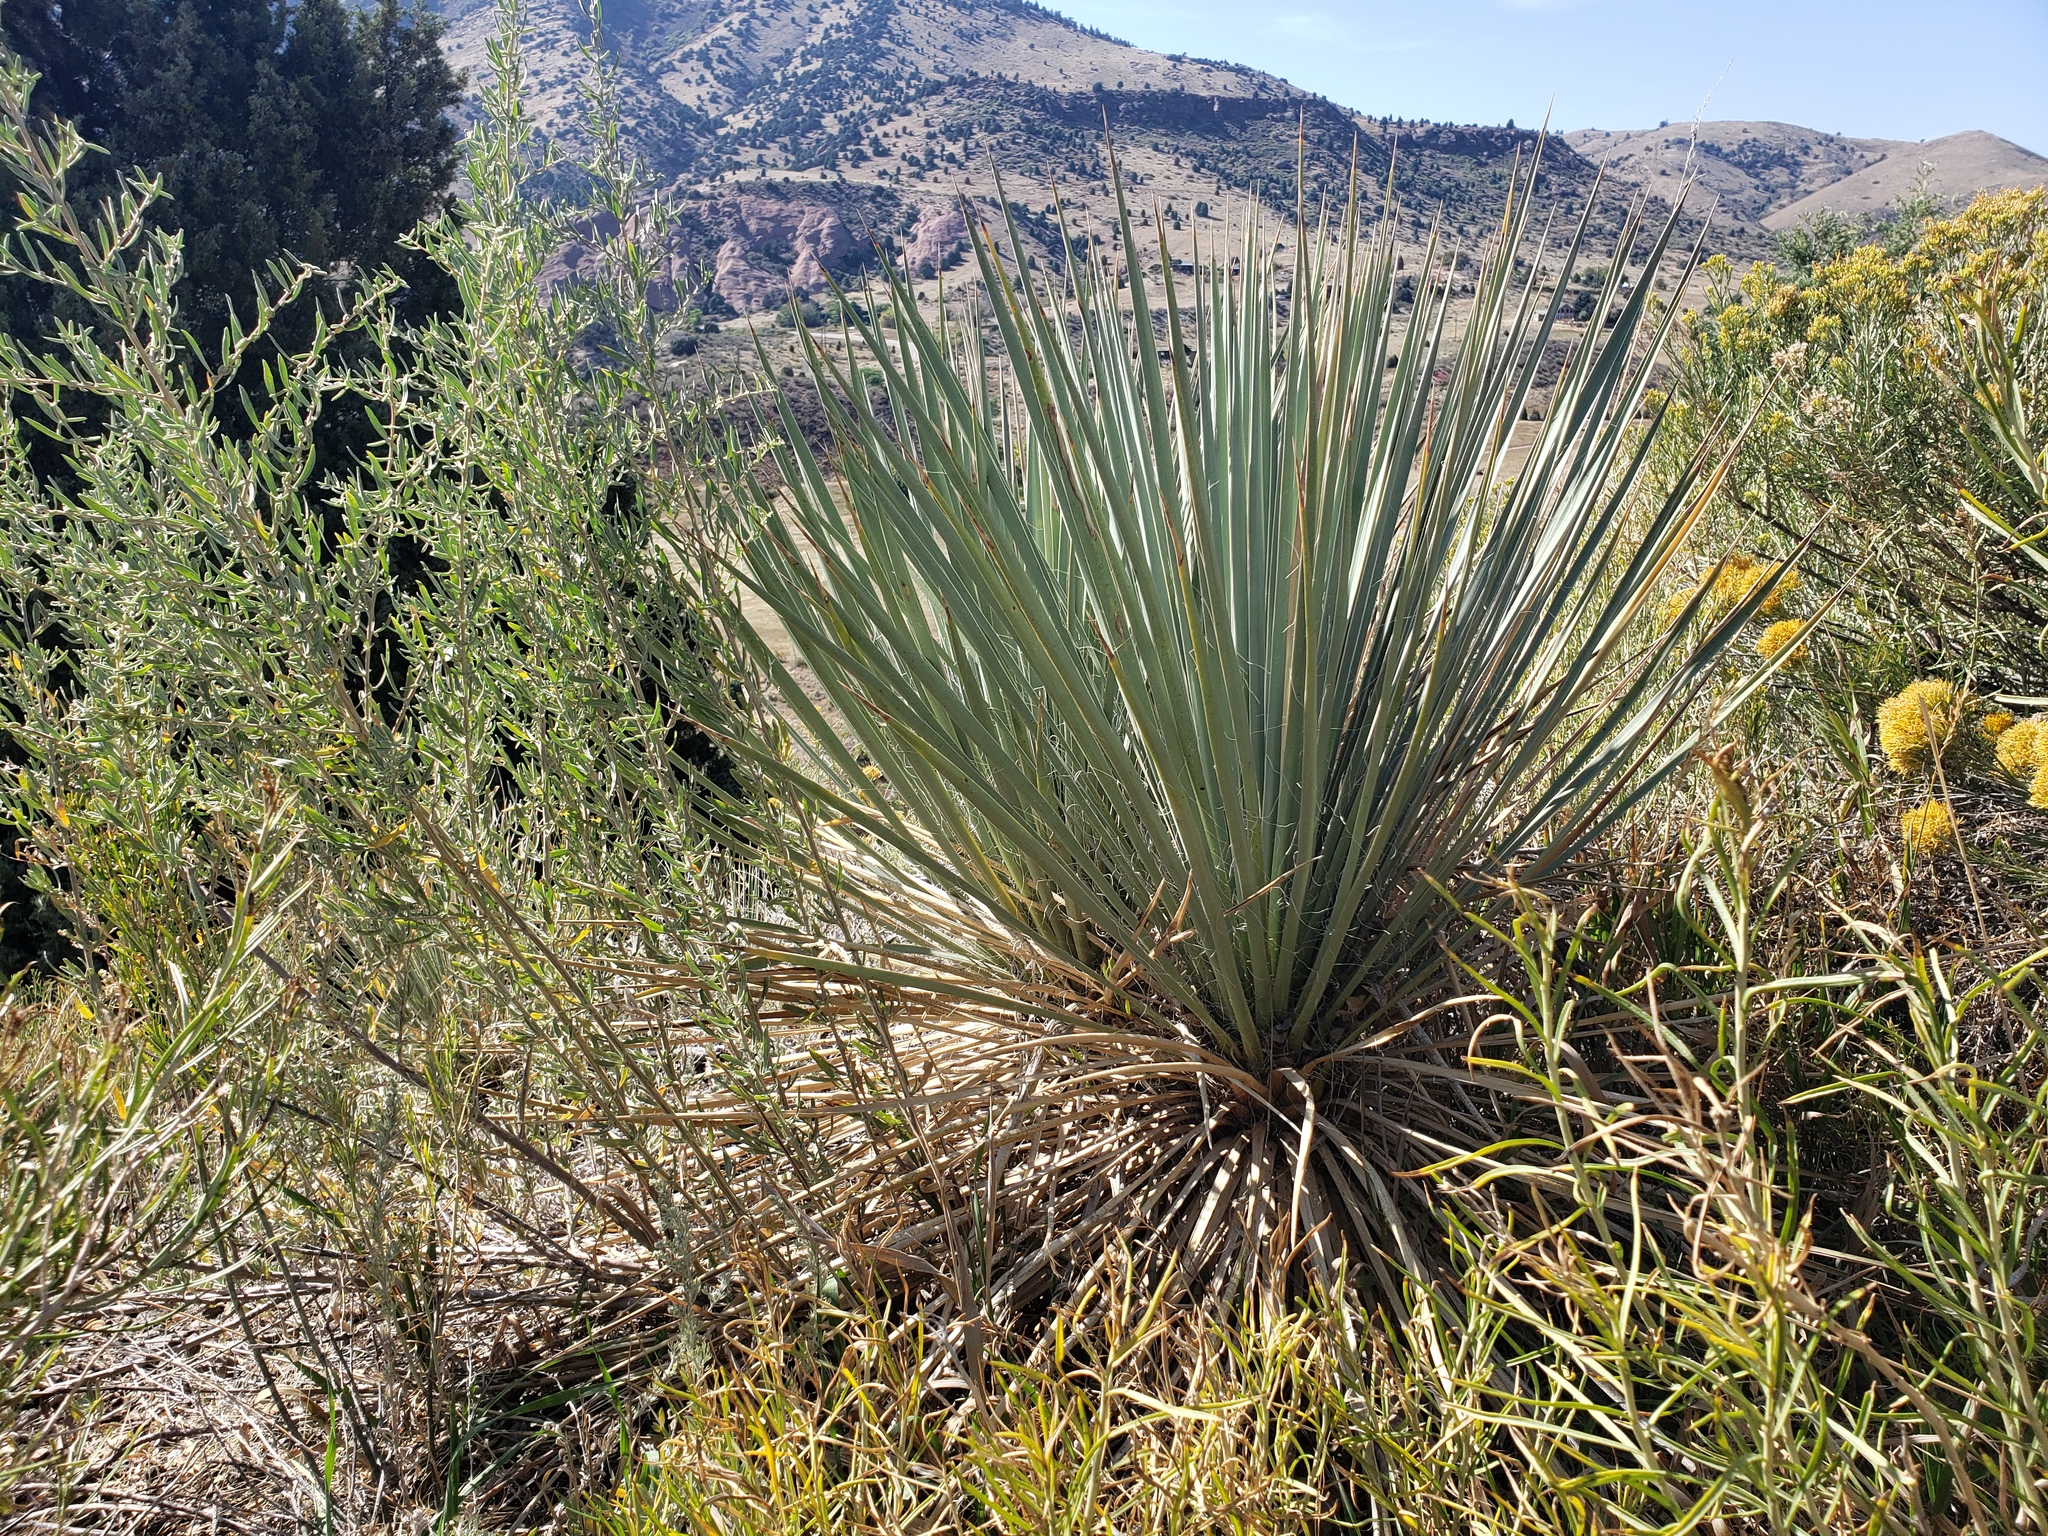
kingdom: Plantae
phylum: Tracheophyta
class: Liliopsida
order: Asparagales
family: Asparagaceae
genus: Yucca
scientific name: Yucca glauca
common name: Great plains yucca
